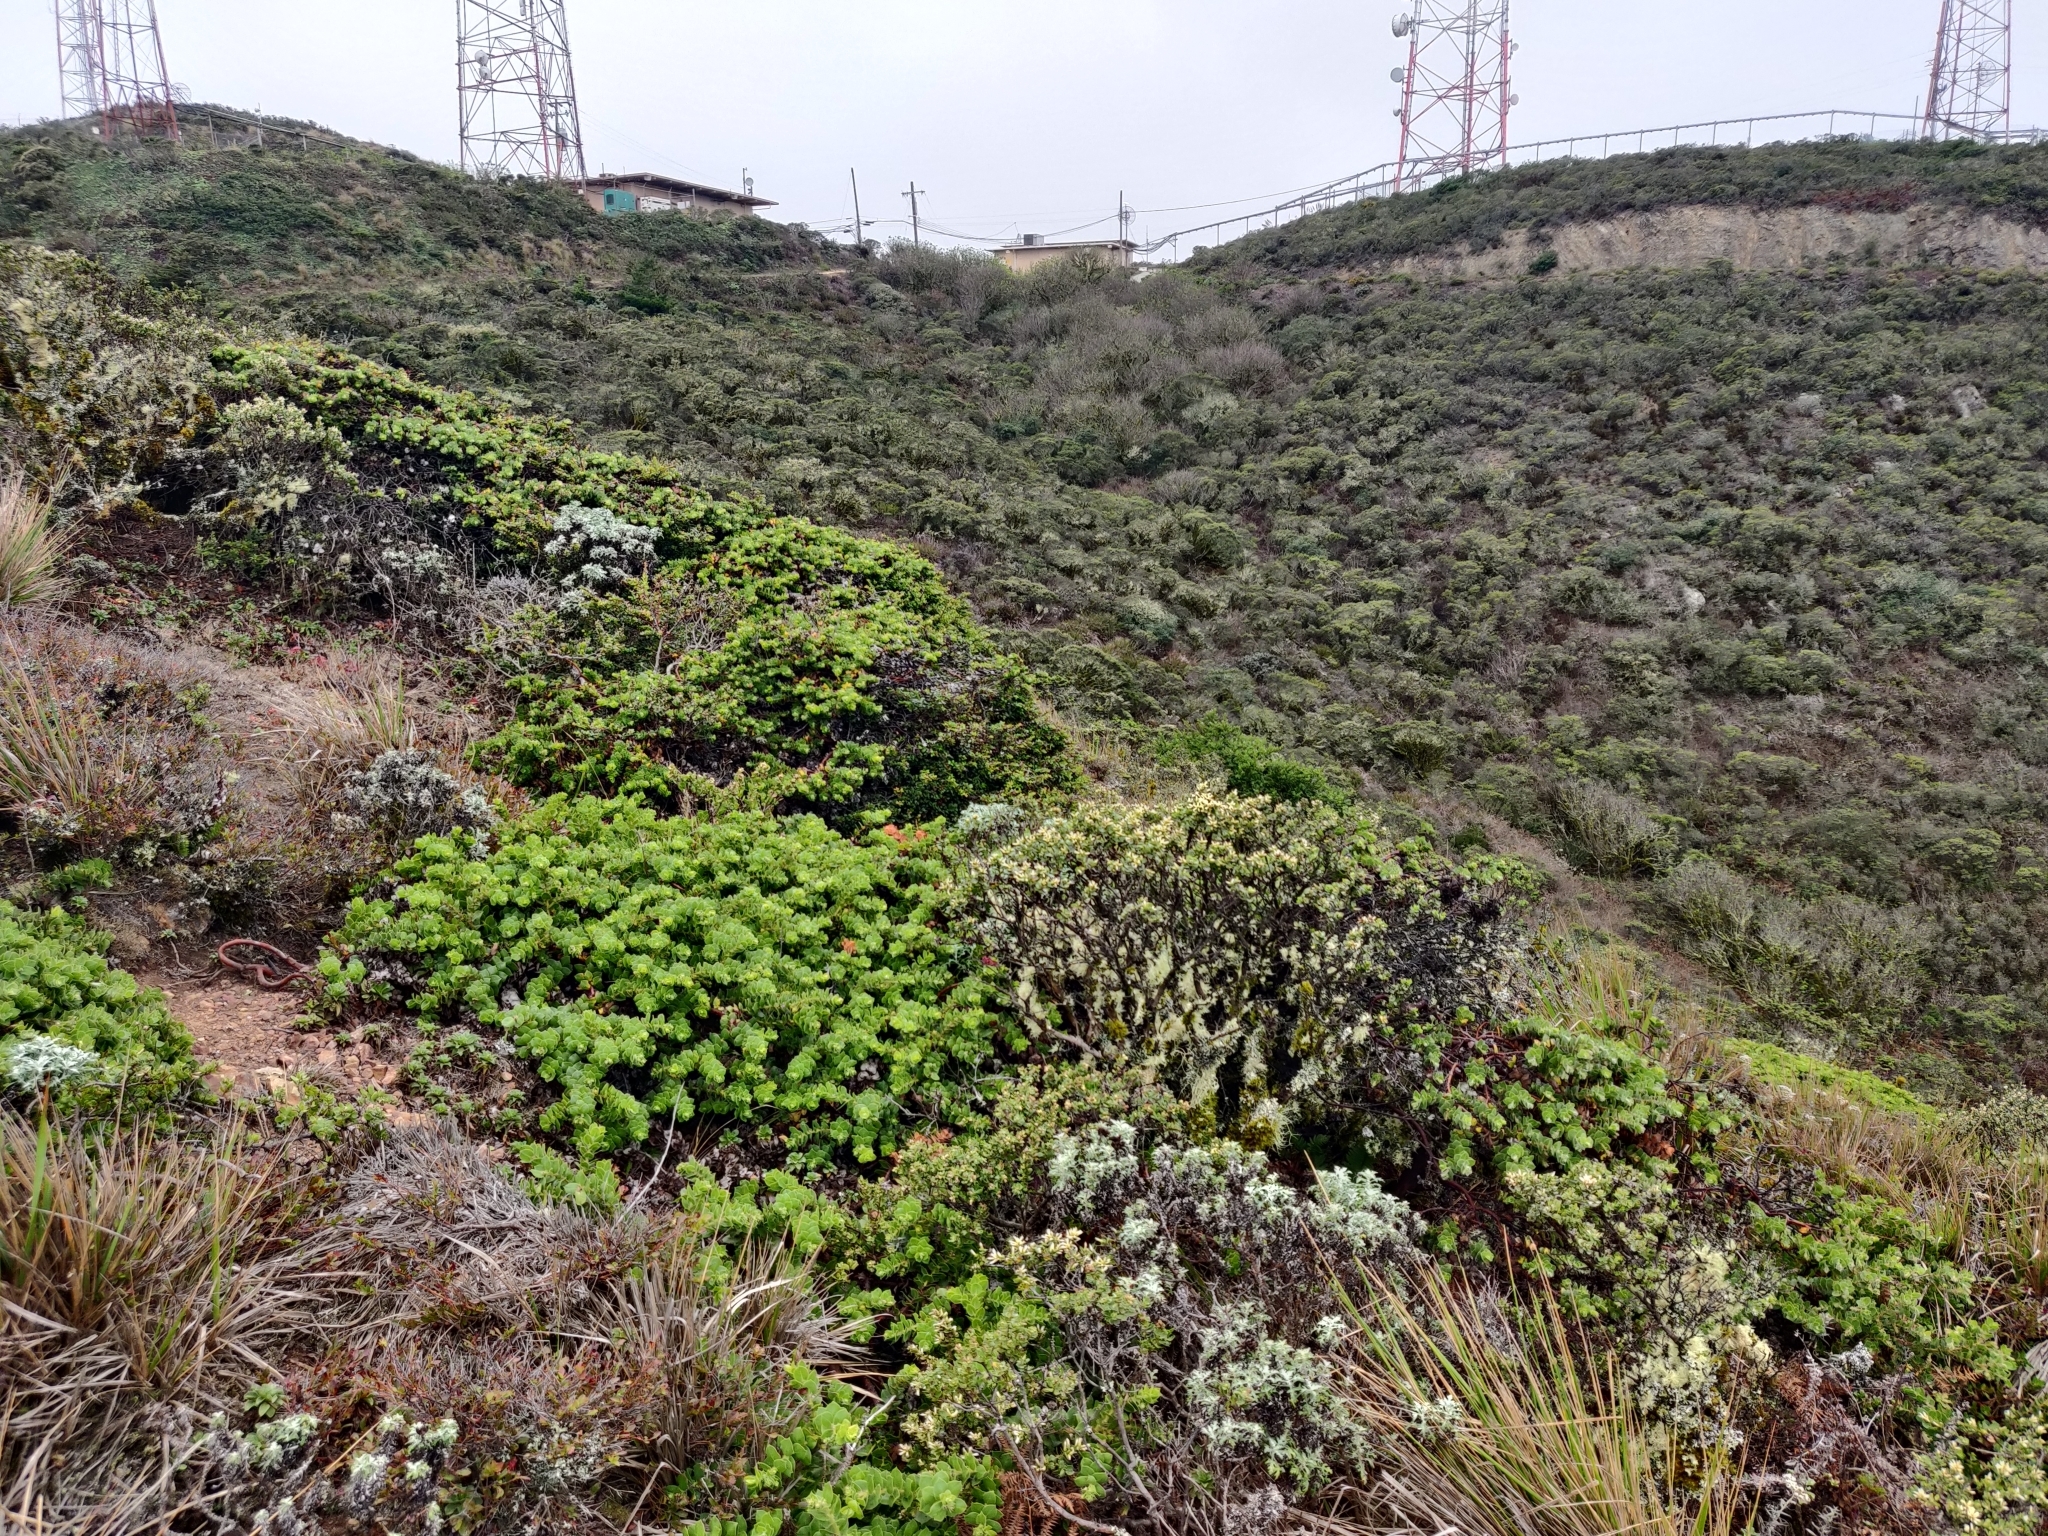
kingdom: Plantae
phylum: Tracheophyta
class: Magnoliopsida
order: Ericales
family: Ericaceae
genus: Arctostaphylos
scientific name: Arctostaphylos imbricata
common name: San bruno mountain manzanita
